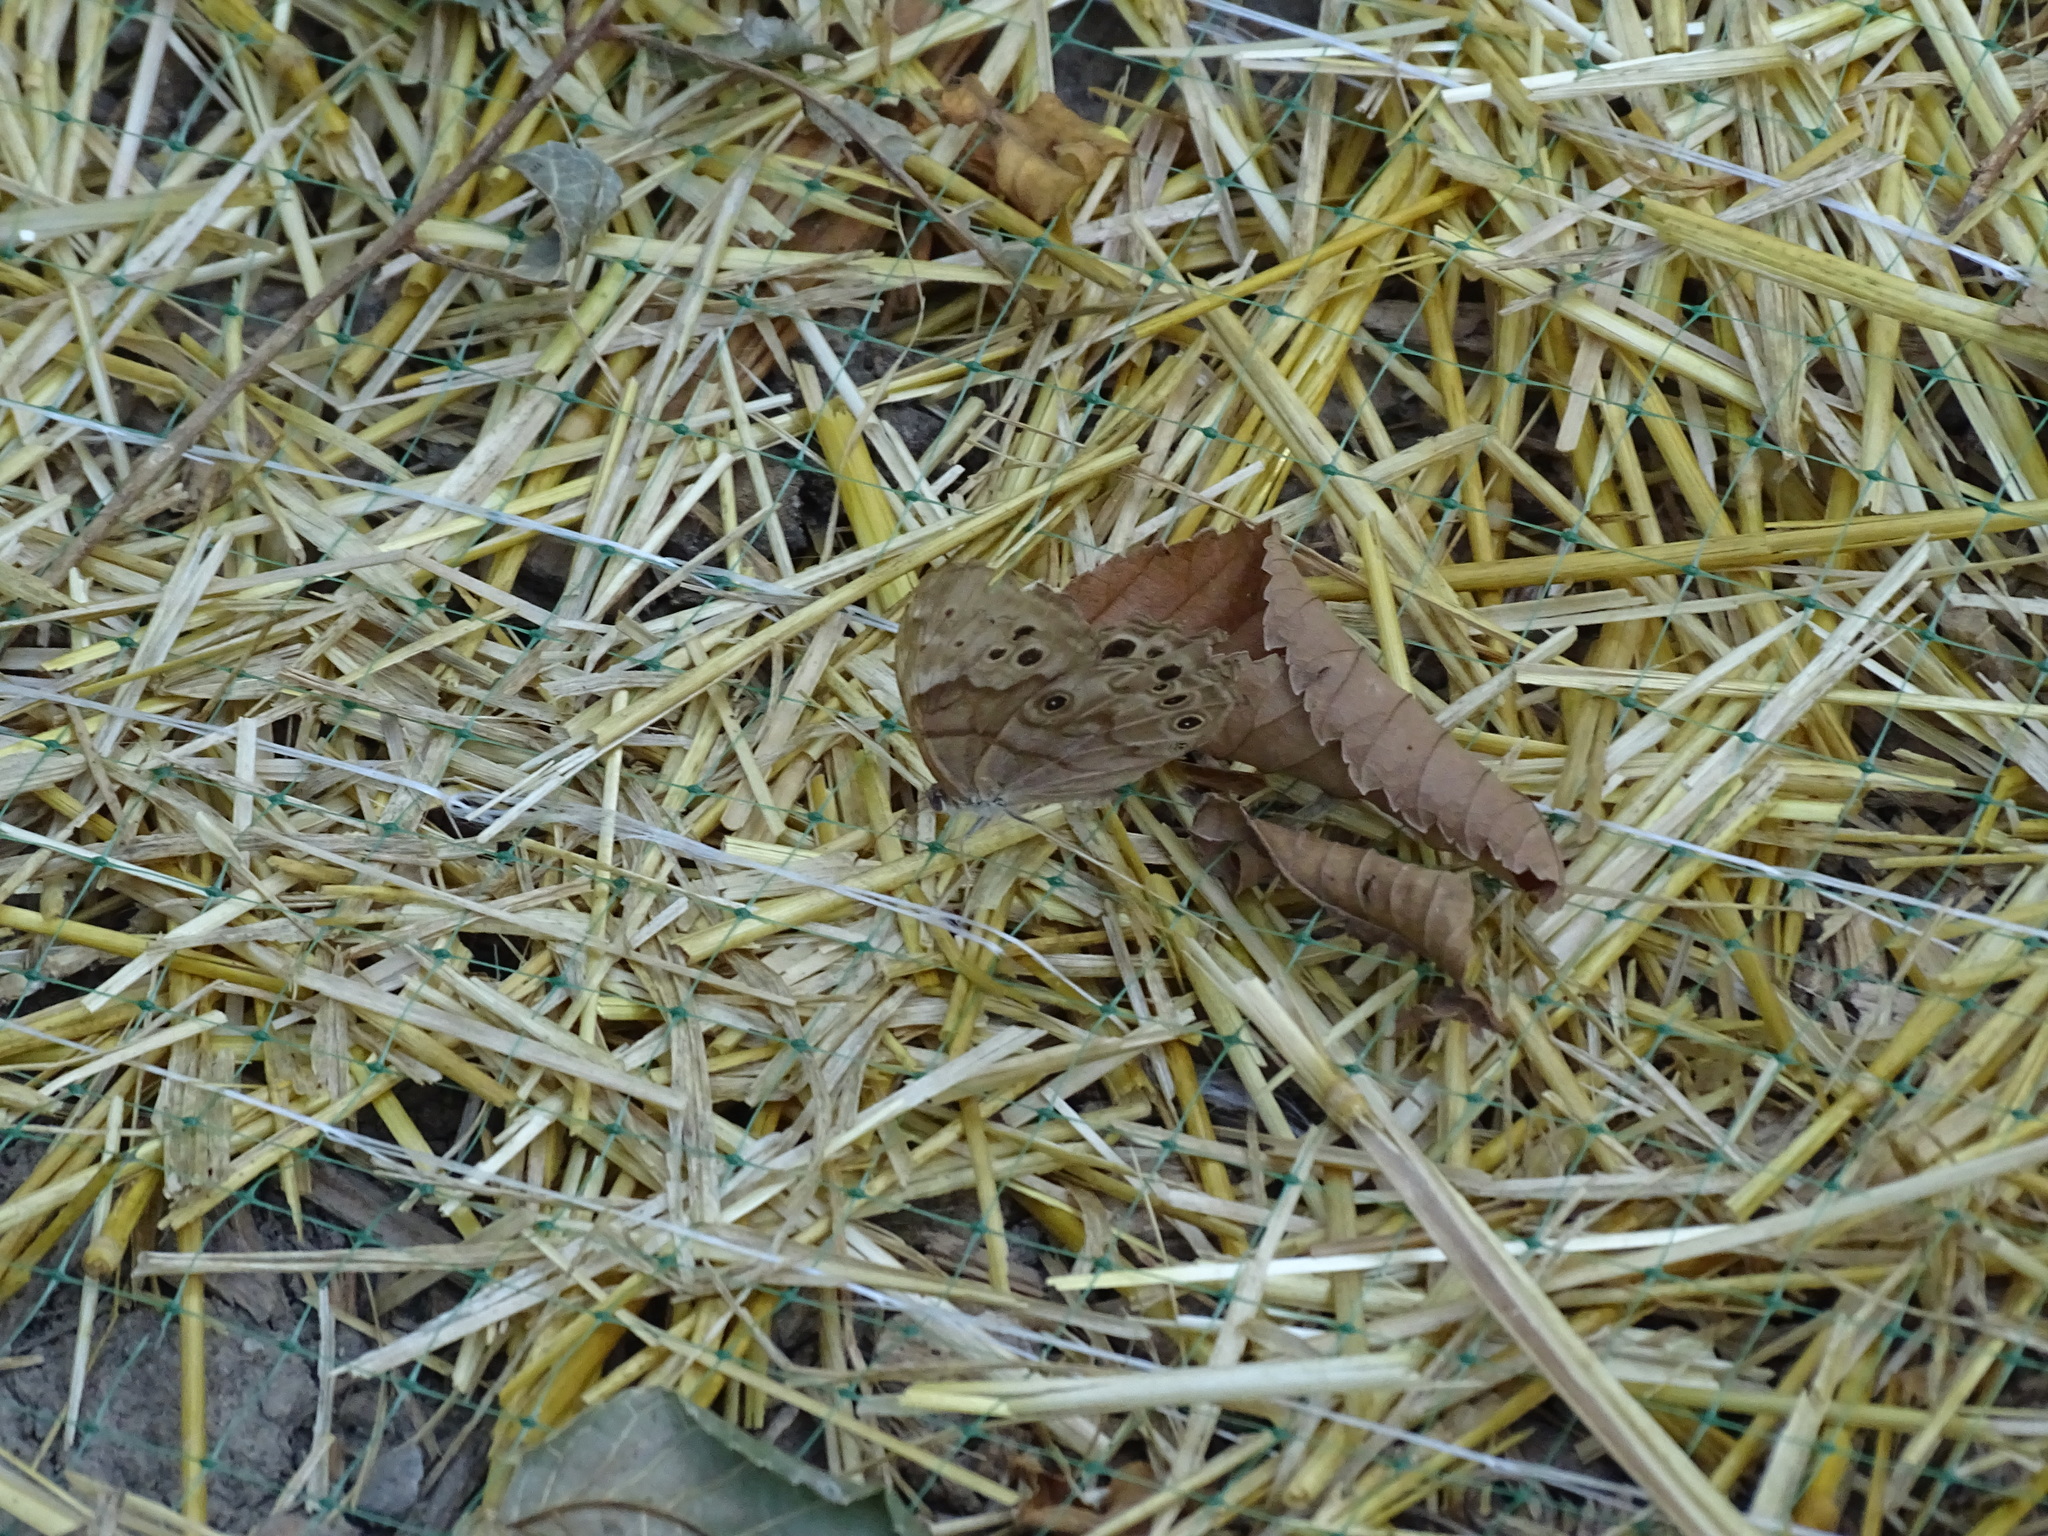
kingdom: Animalia
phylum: Arthropoda
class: Insecta
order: Lepidoptera
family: Nymphalidae
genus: Lethe
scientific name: Lethe anthedon
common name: Northern pearly-eye
